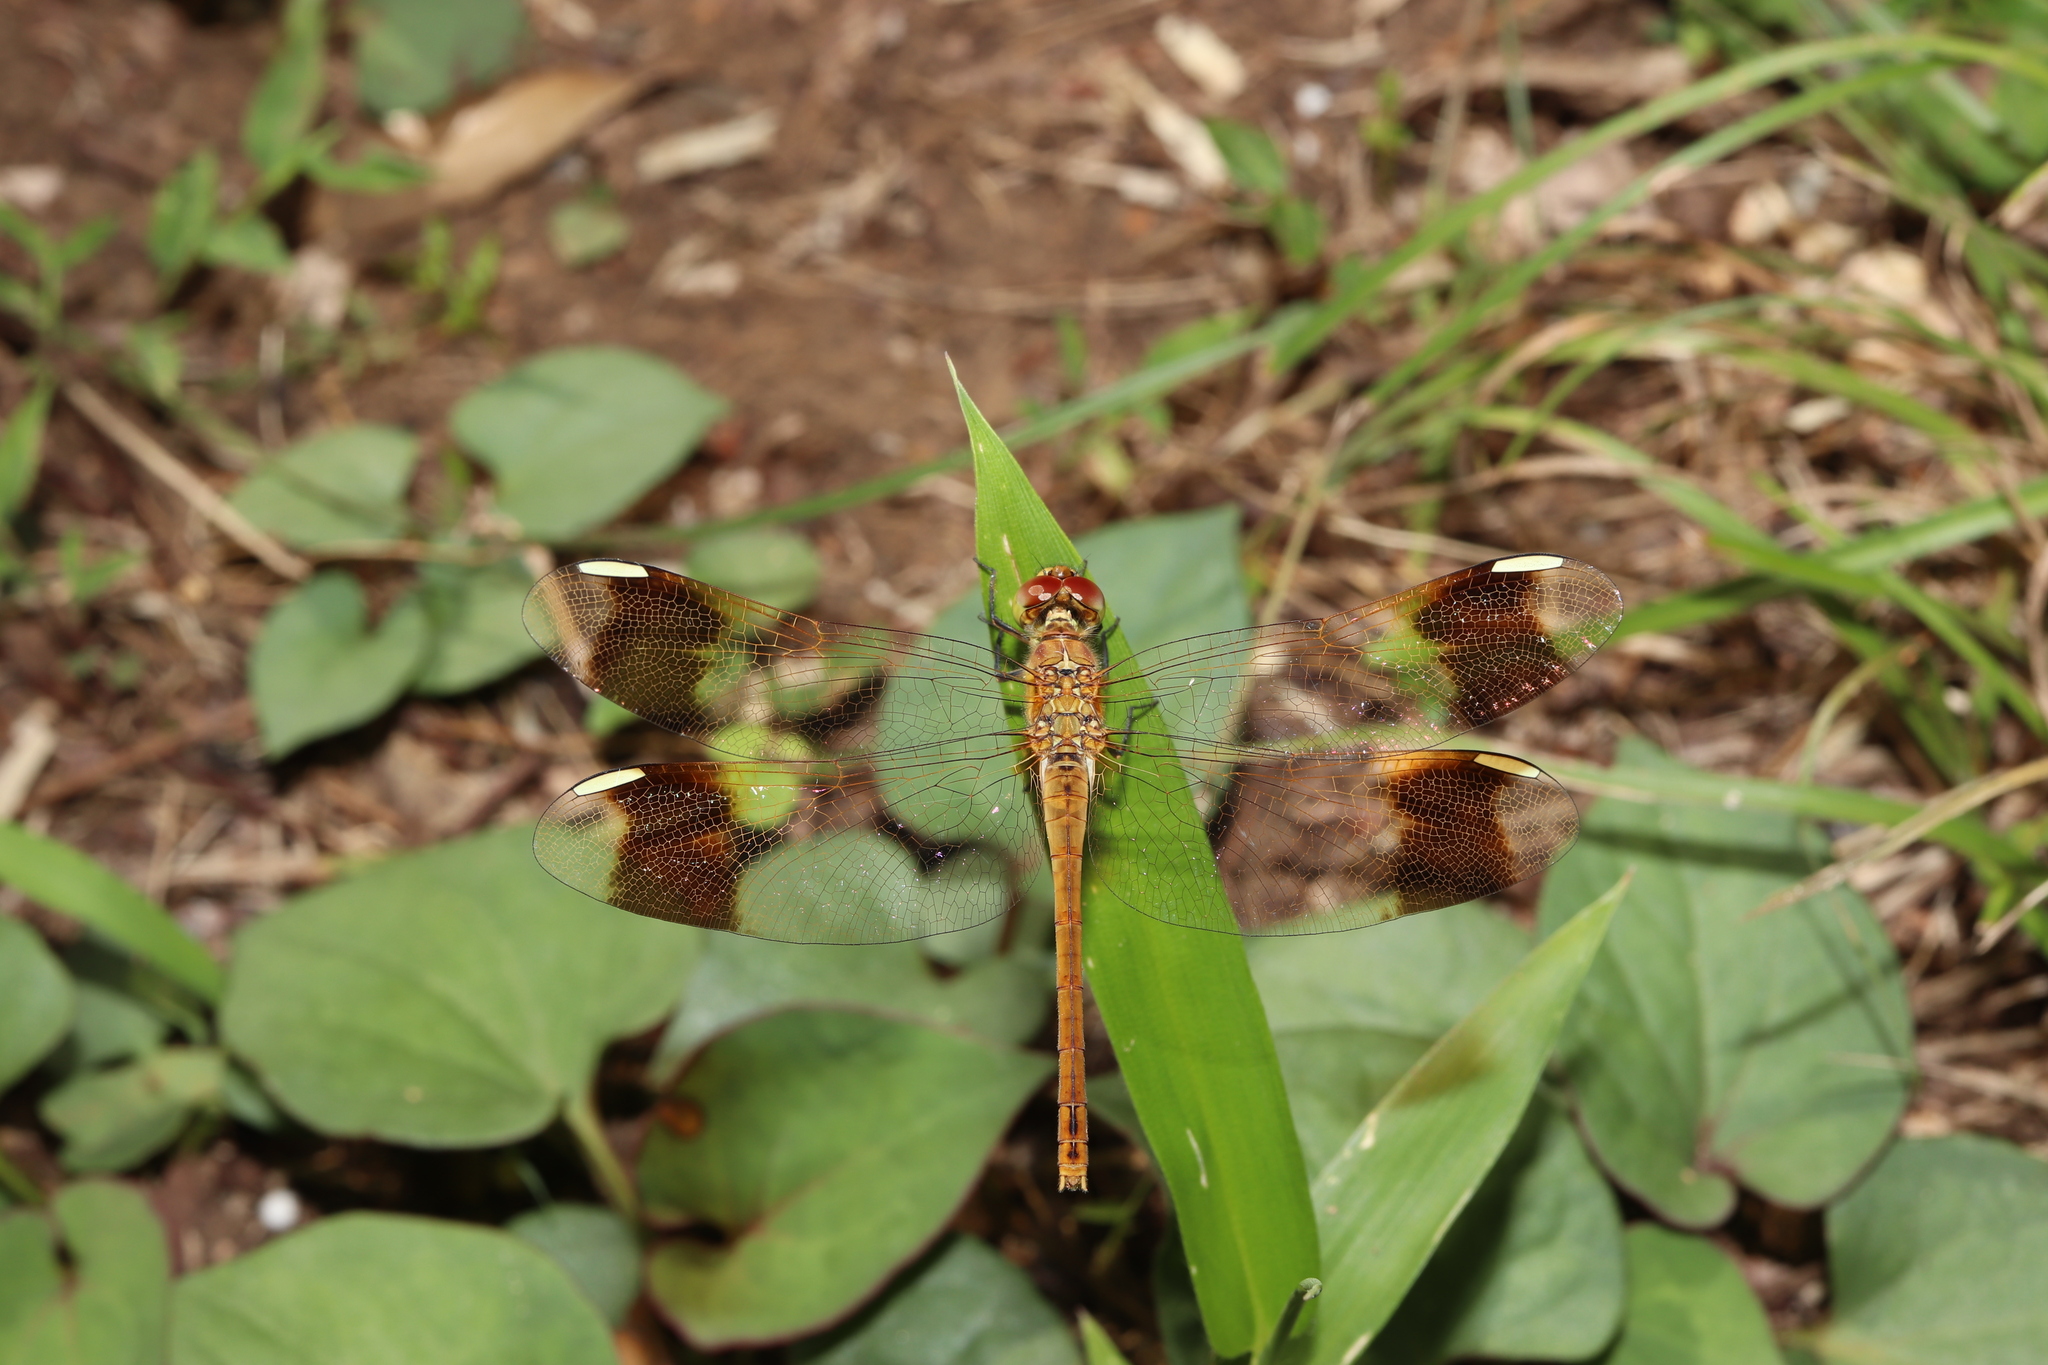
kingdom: Animalia
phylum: Arthropoda
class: Insecta
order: Odonata
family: Libellulidae
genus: Sympetrum
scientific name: Sympetrum pedemontanum
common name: Banded darter
